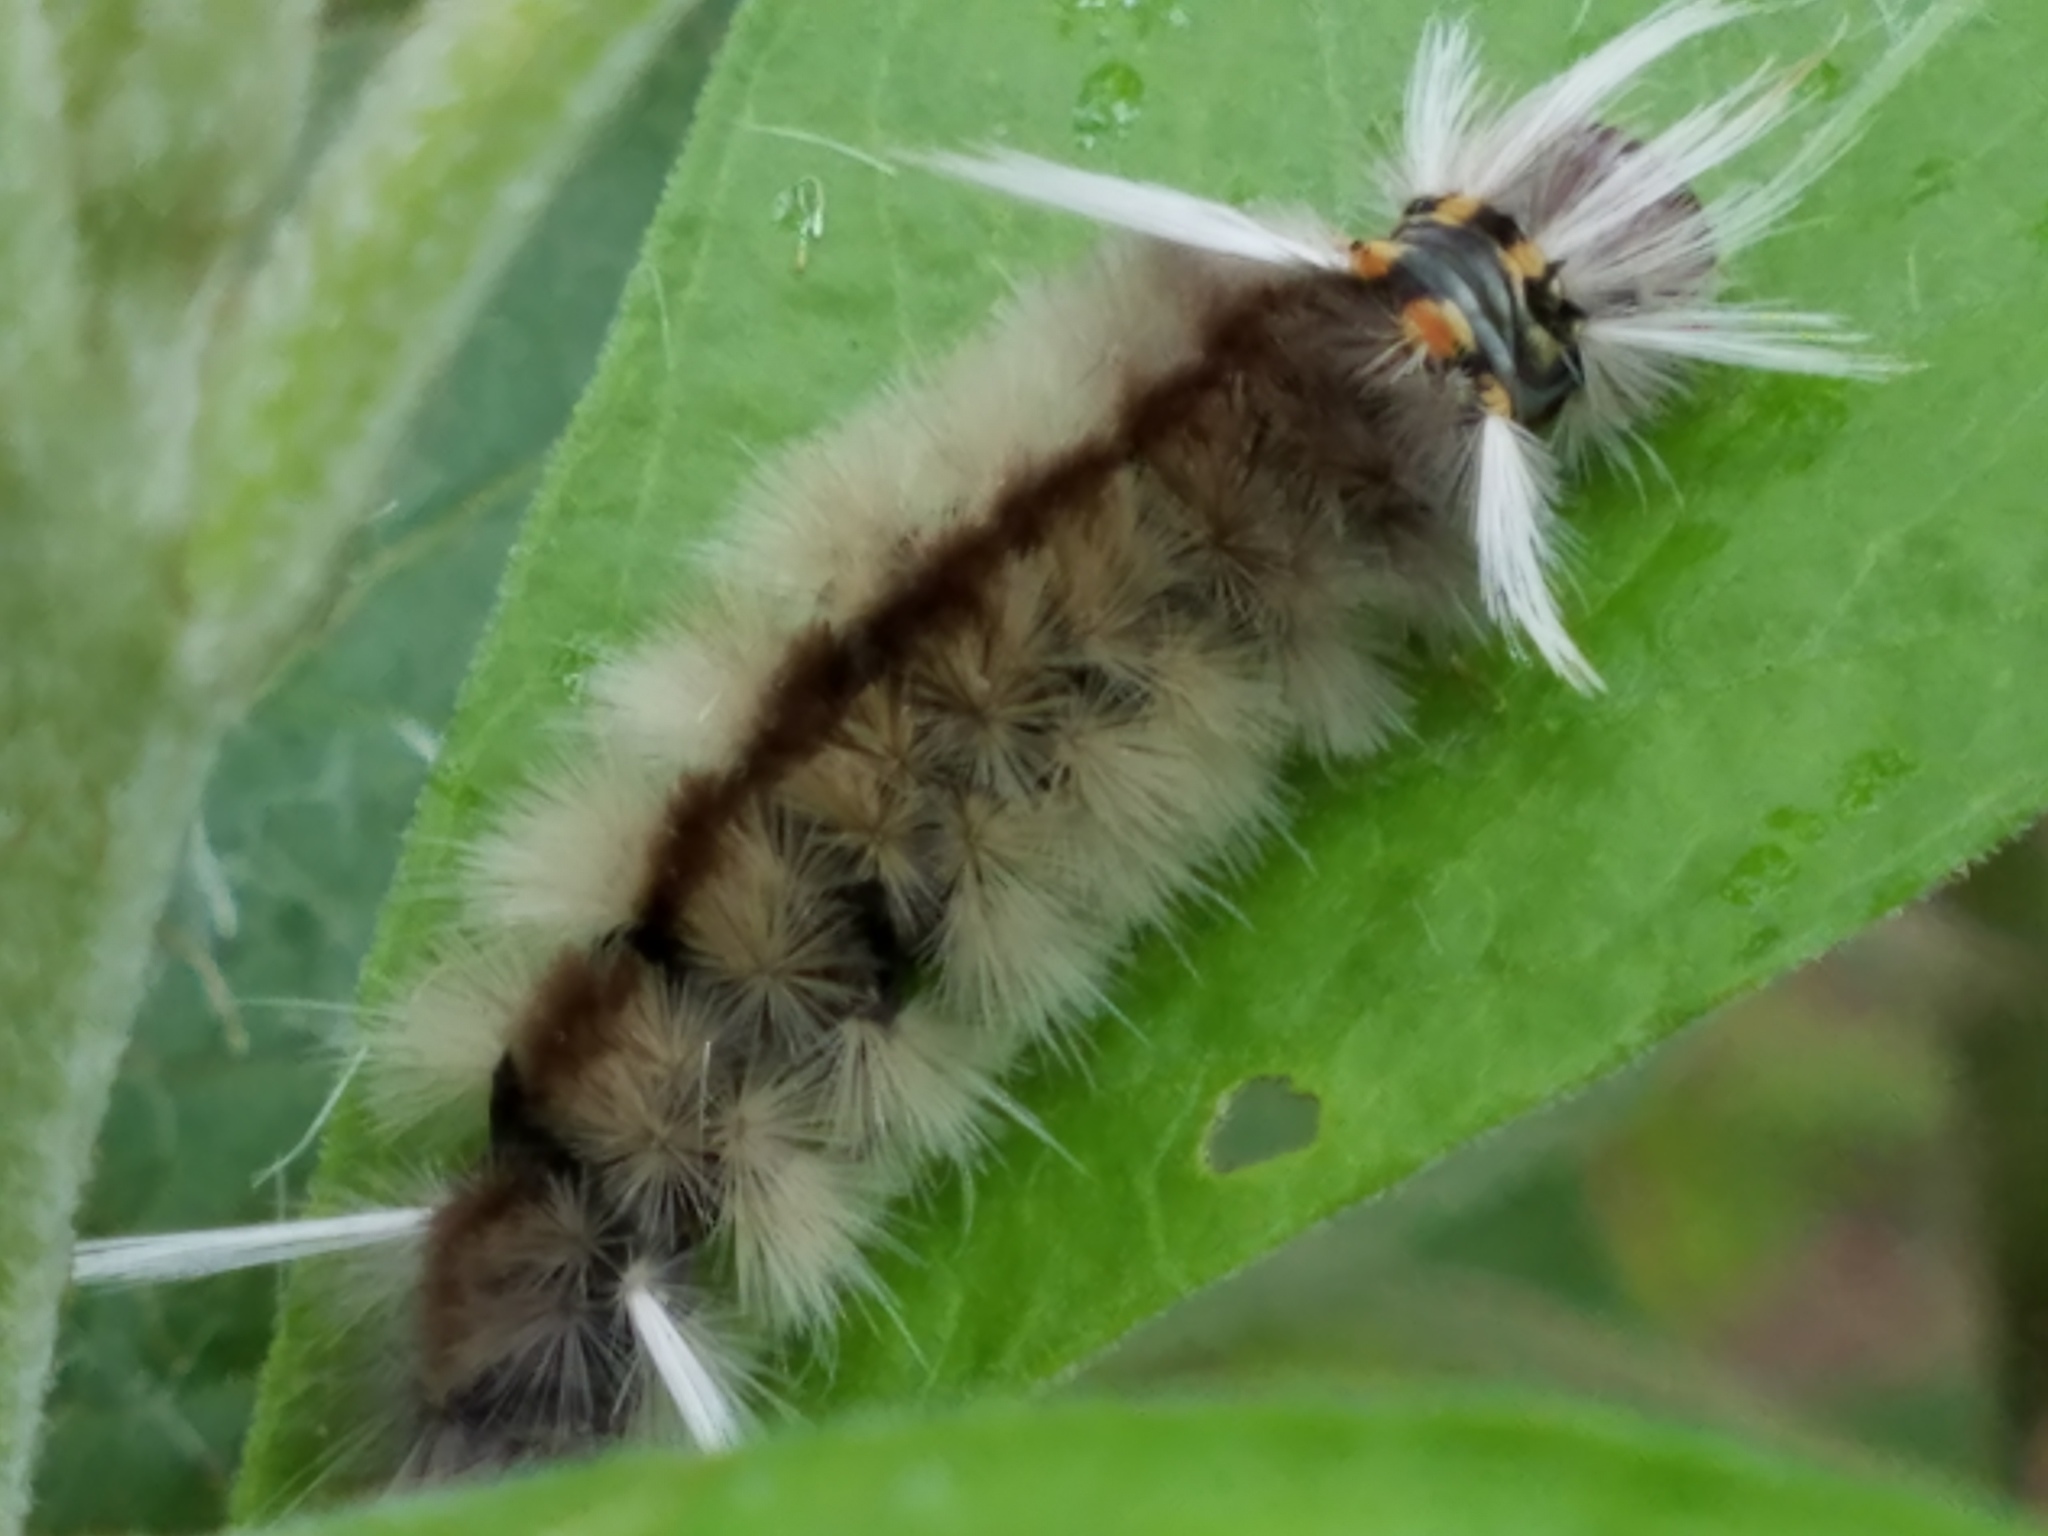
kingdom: Animalia
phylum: Arthropoda
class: Insecta
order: Lepidoptera
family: Erebidae
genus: Halysidota
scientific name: Halysidota schausi
